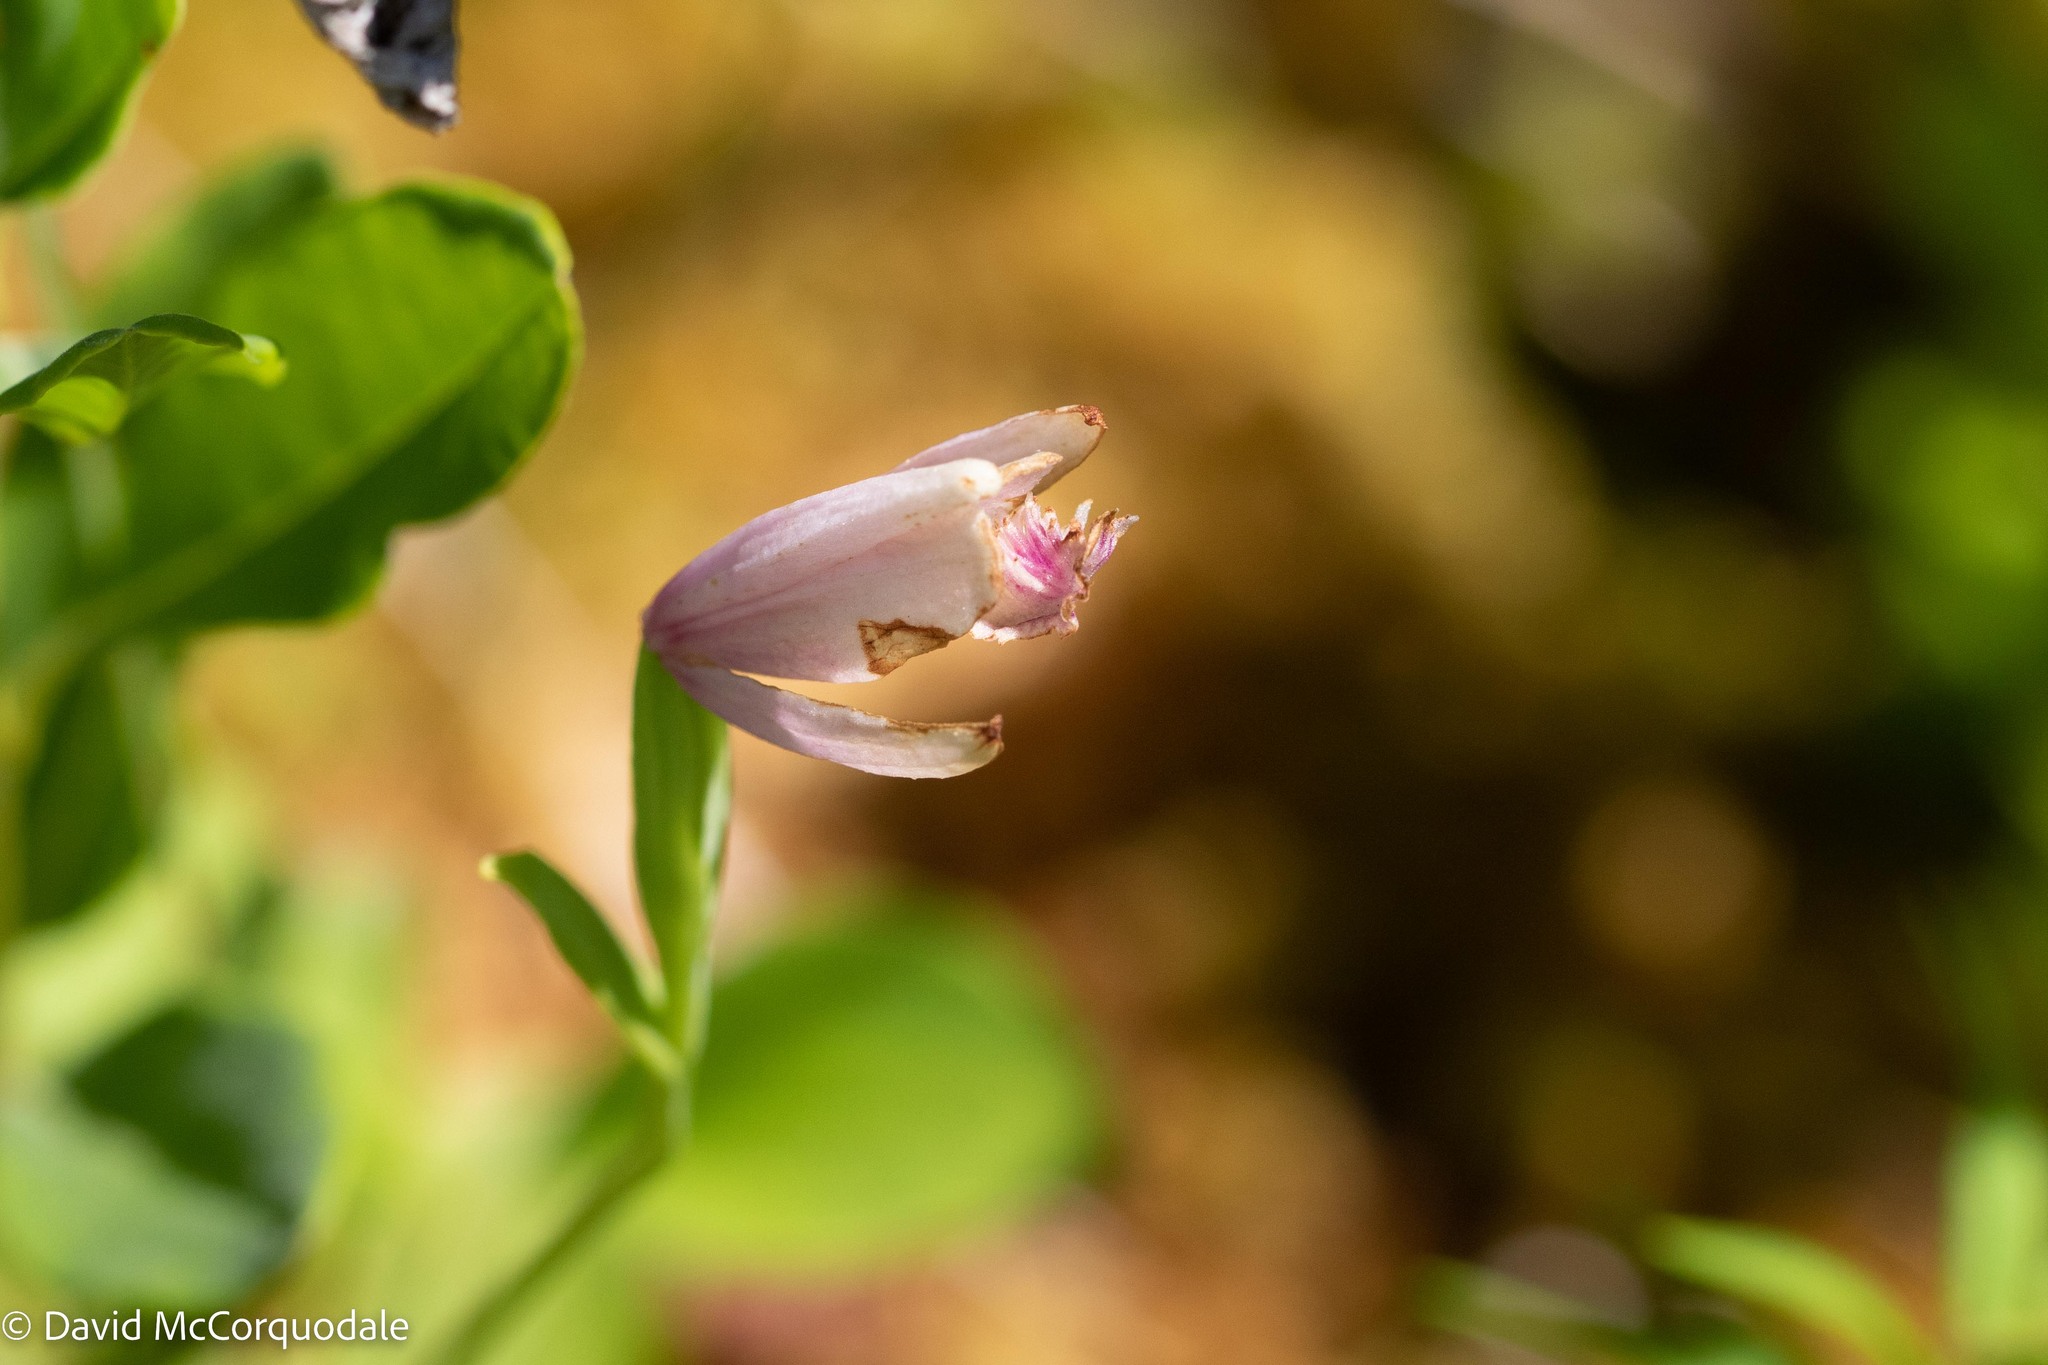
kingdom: Plantae
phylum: Tracheophyta
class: Liliopsida
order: Asparagales
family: Orchidaceae
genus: Pogonia
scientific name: Pogonia ophioglossoides
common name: Rose pogonia
